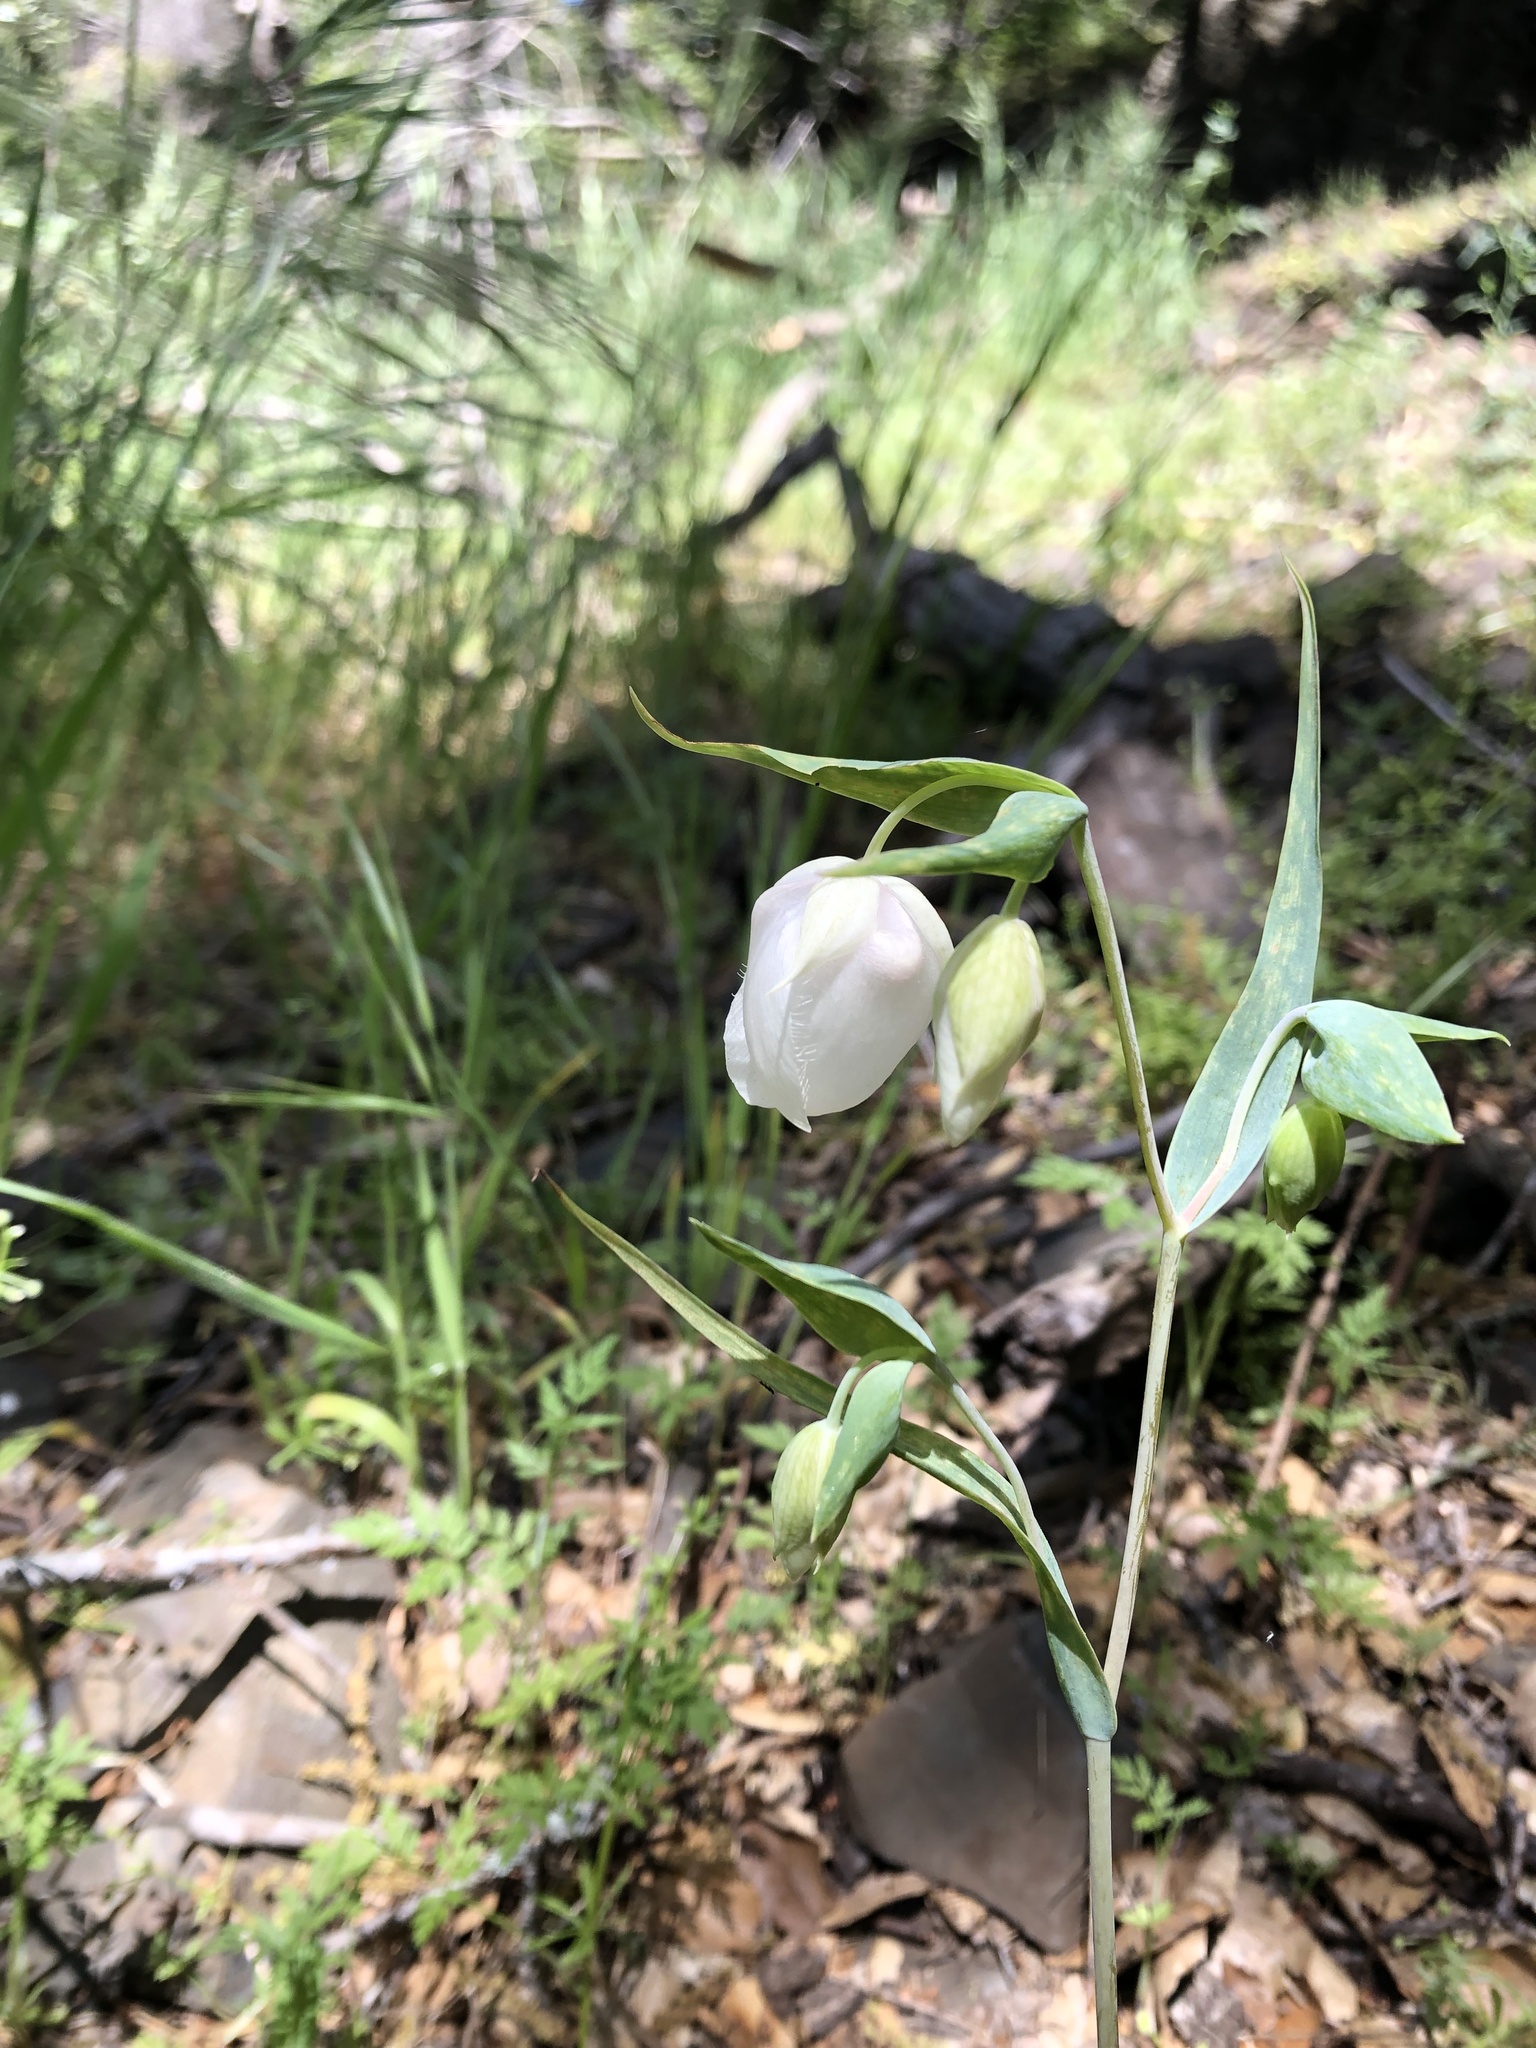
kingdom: Plantae
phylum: Tracheophyta
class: Liliopsida
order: Liliales
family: Liliaceae
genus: Calochortus
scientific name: Calochortus albus
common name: Fairy-lantern
